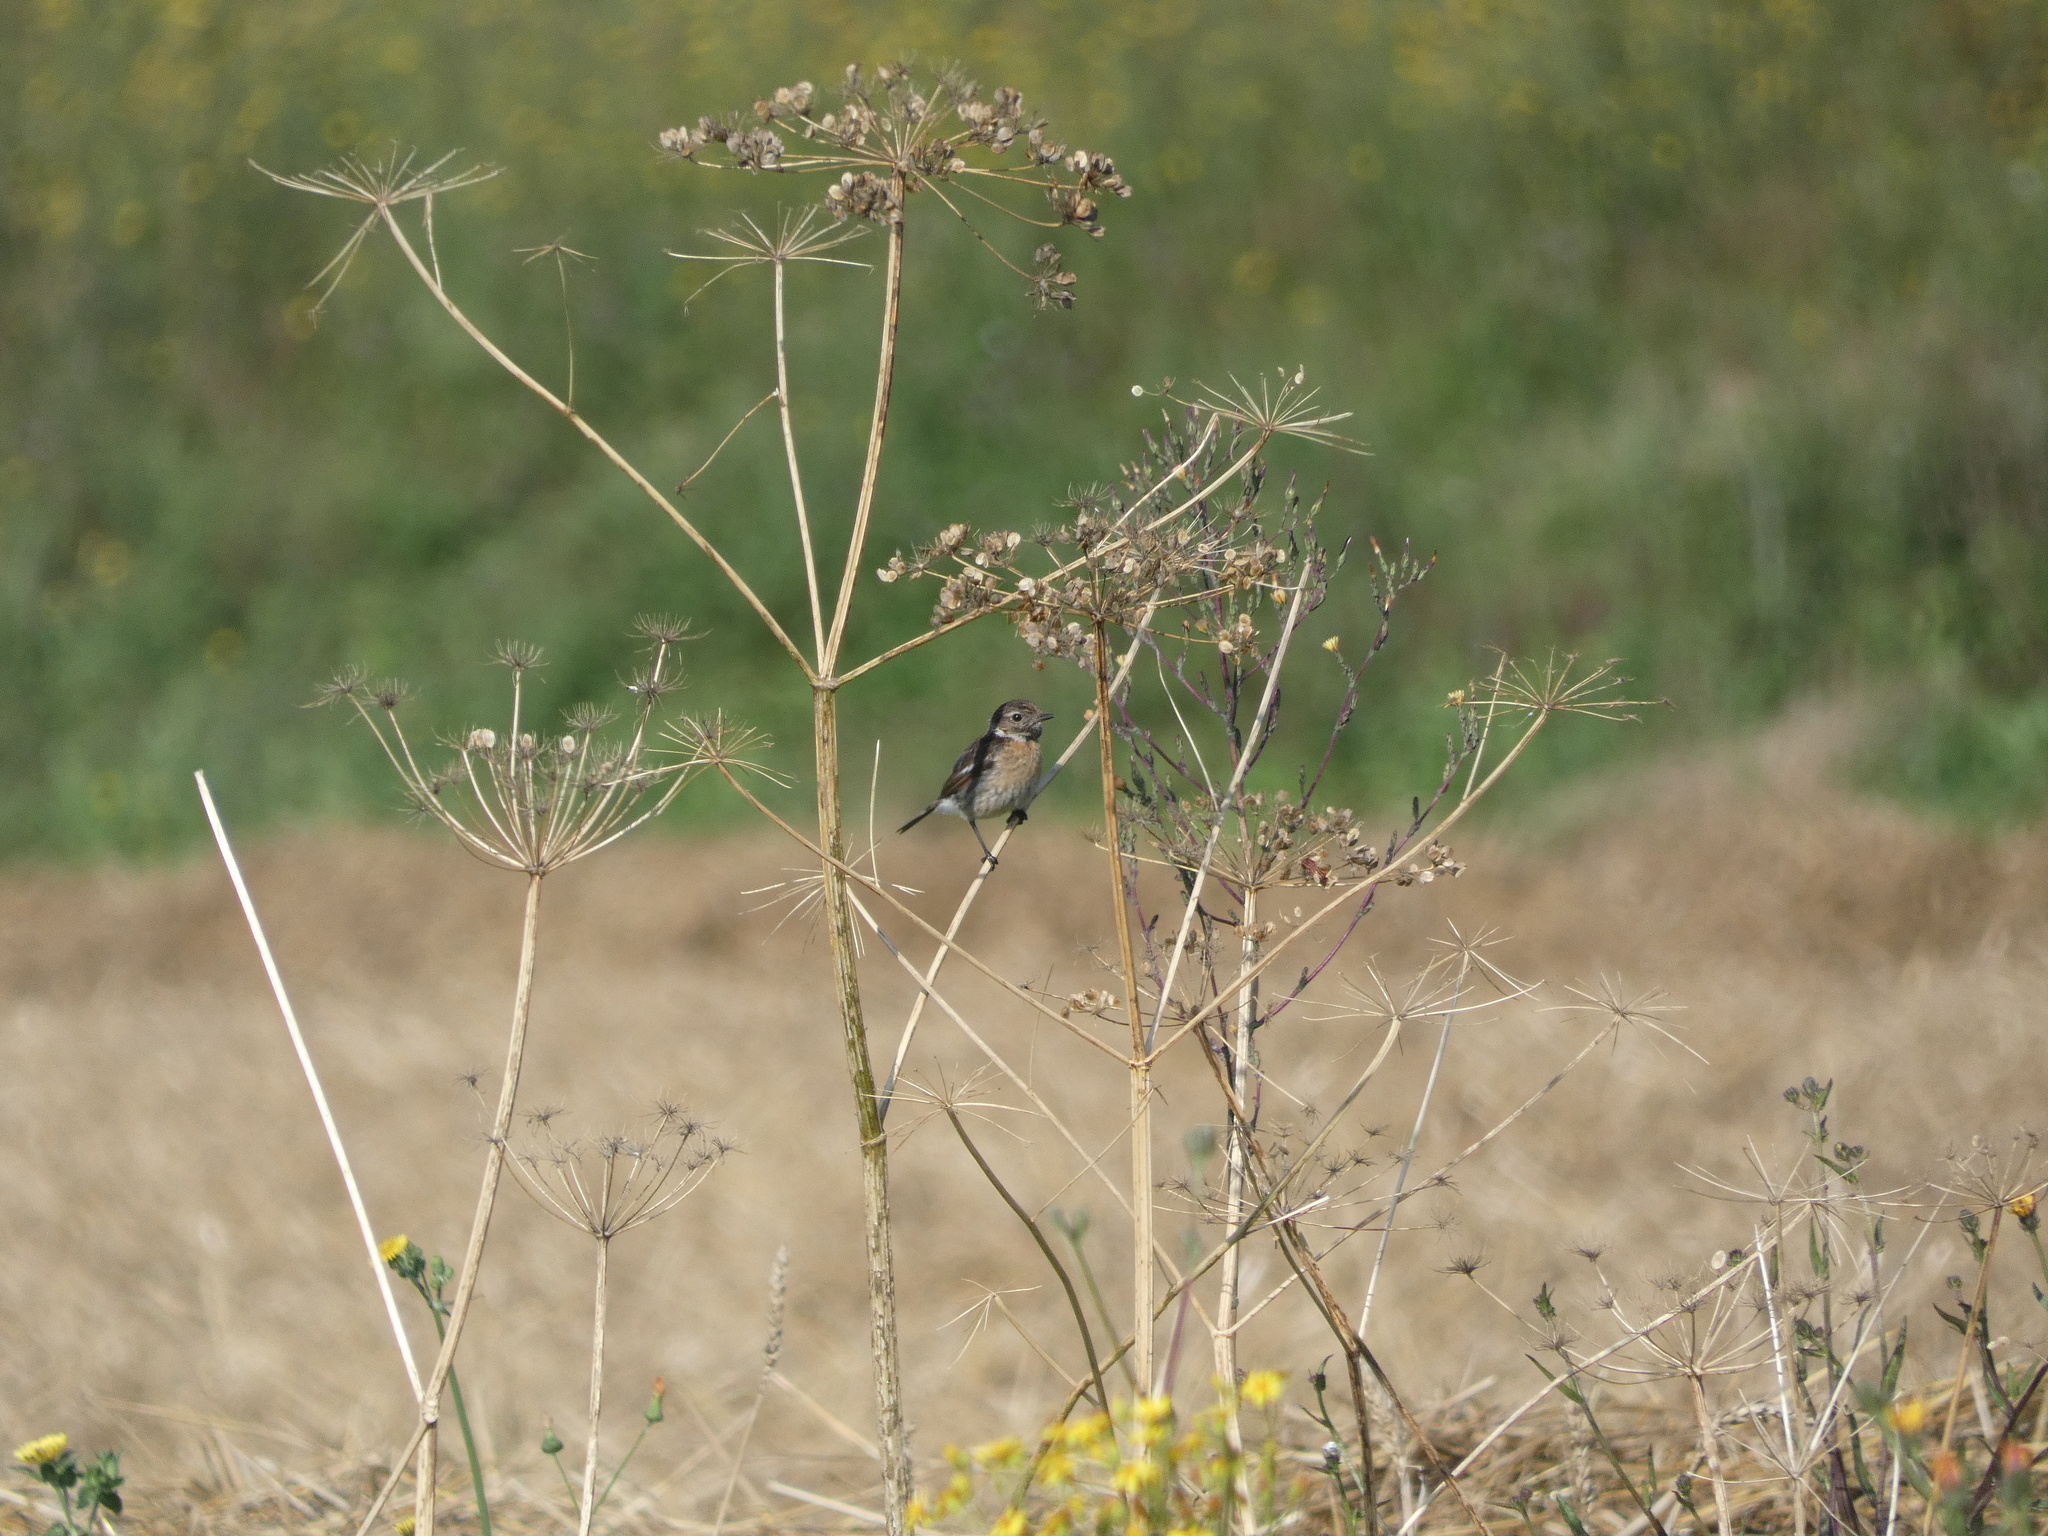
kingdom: Animalia
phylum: Chordata
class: Aves
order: Passeriformes
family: Muscicapidae
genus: Saxicola
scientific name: Saxicola rubicola
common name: European stonechat
